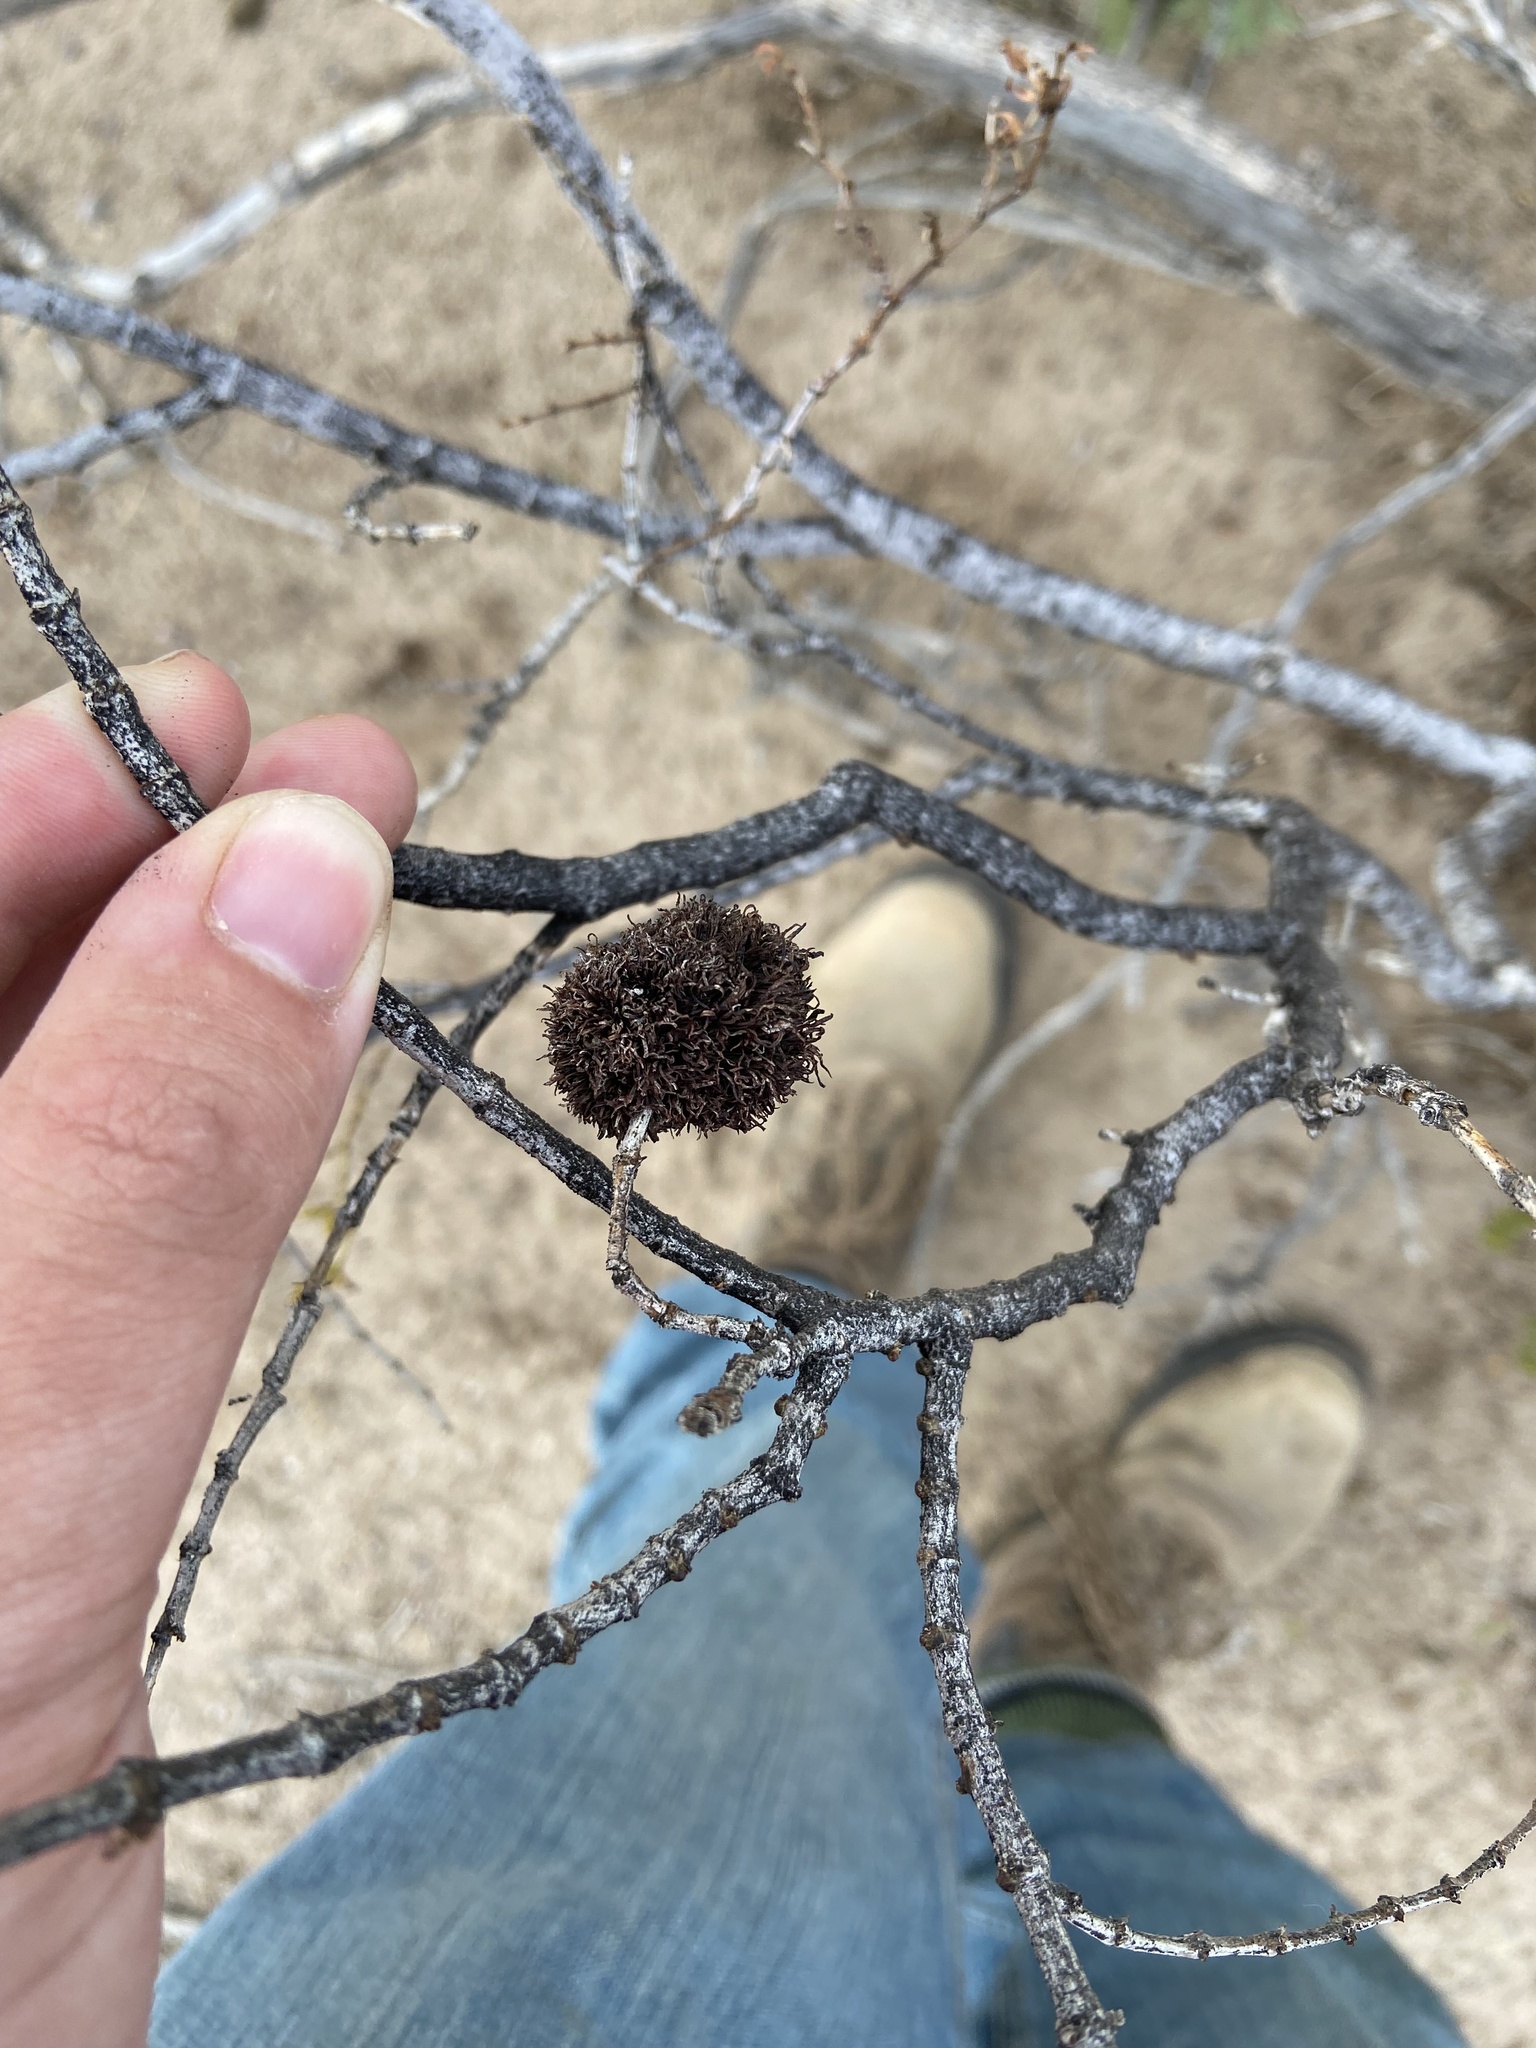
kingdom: Animalia
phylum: Arthropoda
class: Insecta
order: Diptera
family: Cecidomyiidae
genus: Asphondylia
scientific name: Asphondylia auripila
